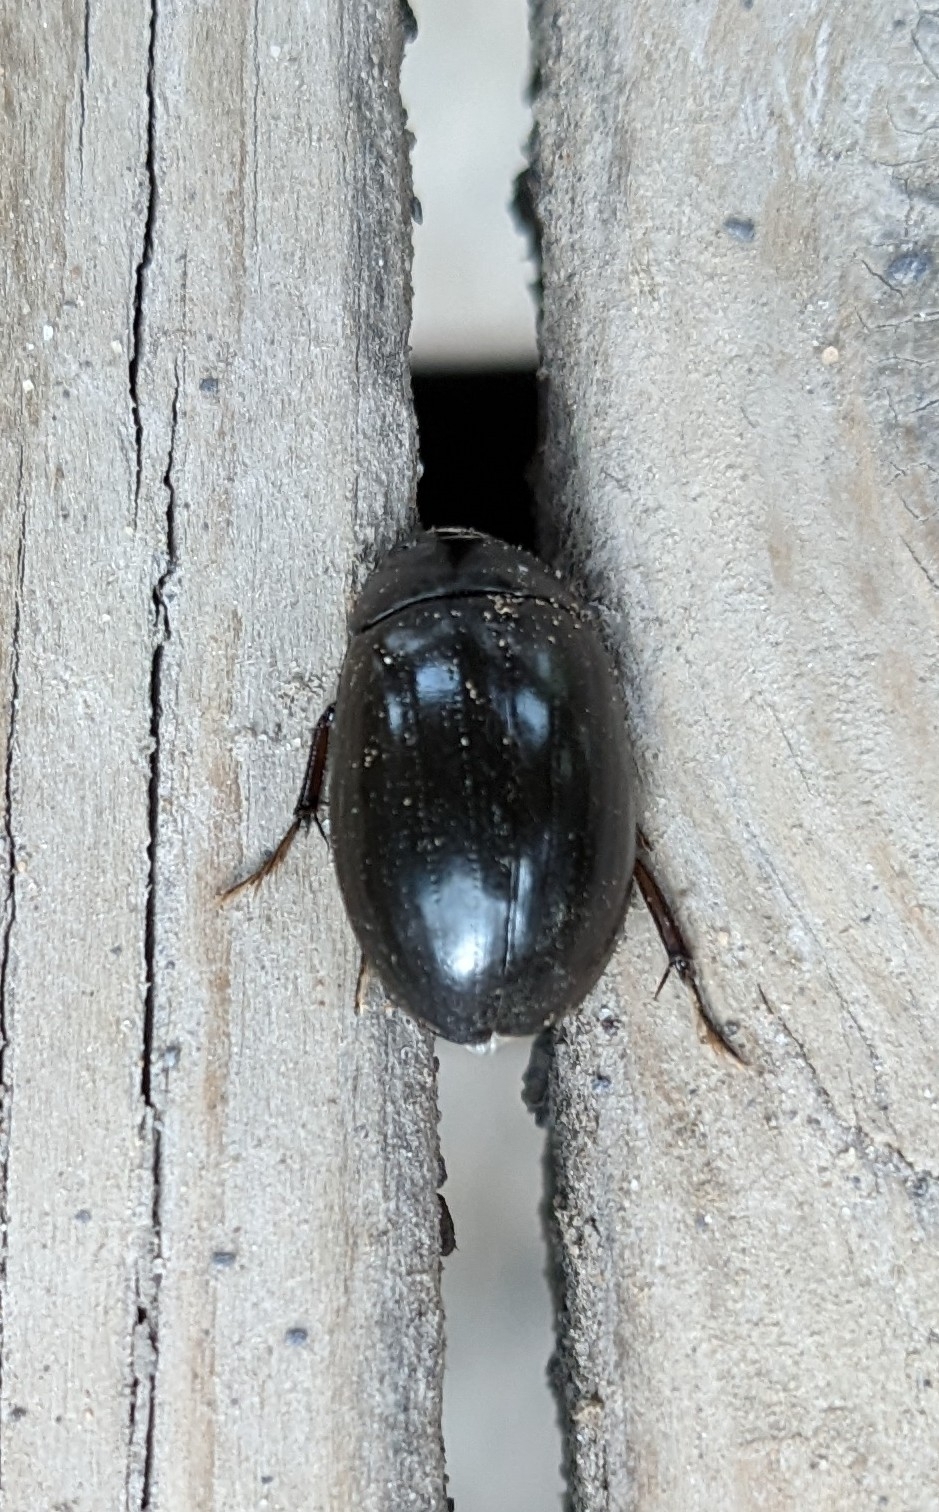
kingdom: Animalia
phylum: Arthropoda
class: Insecta
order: Coleoptera
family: Hydrophilidae
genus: Hydrochara
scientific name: Hydrochara caraboides
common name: Lesser silver water beetle
